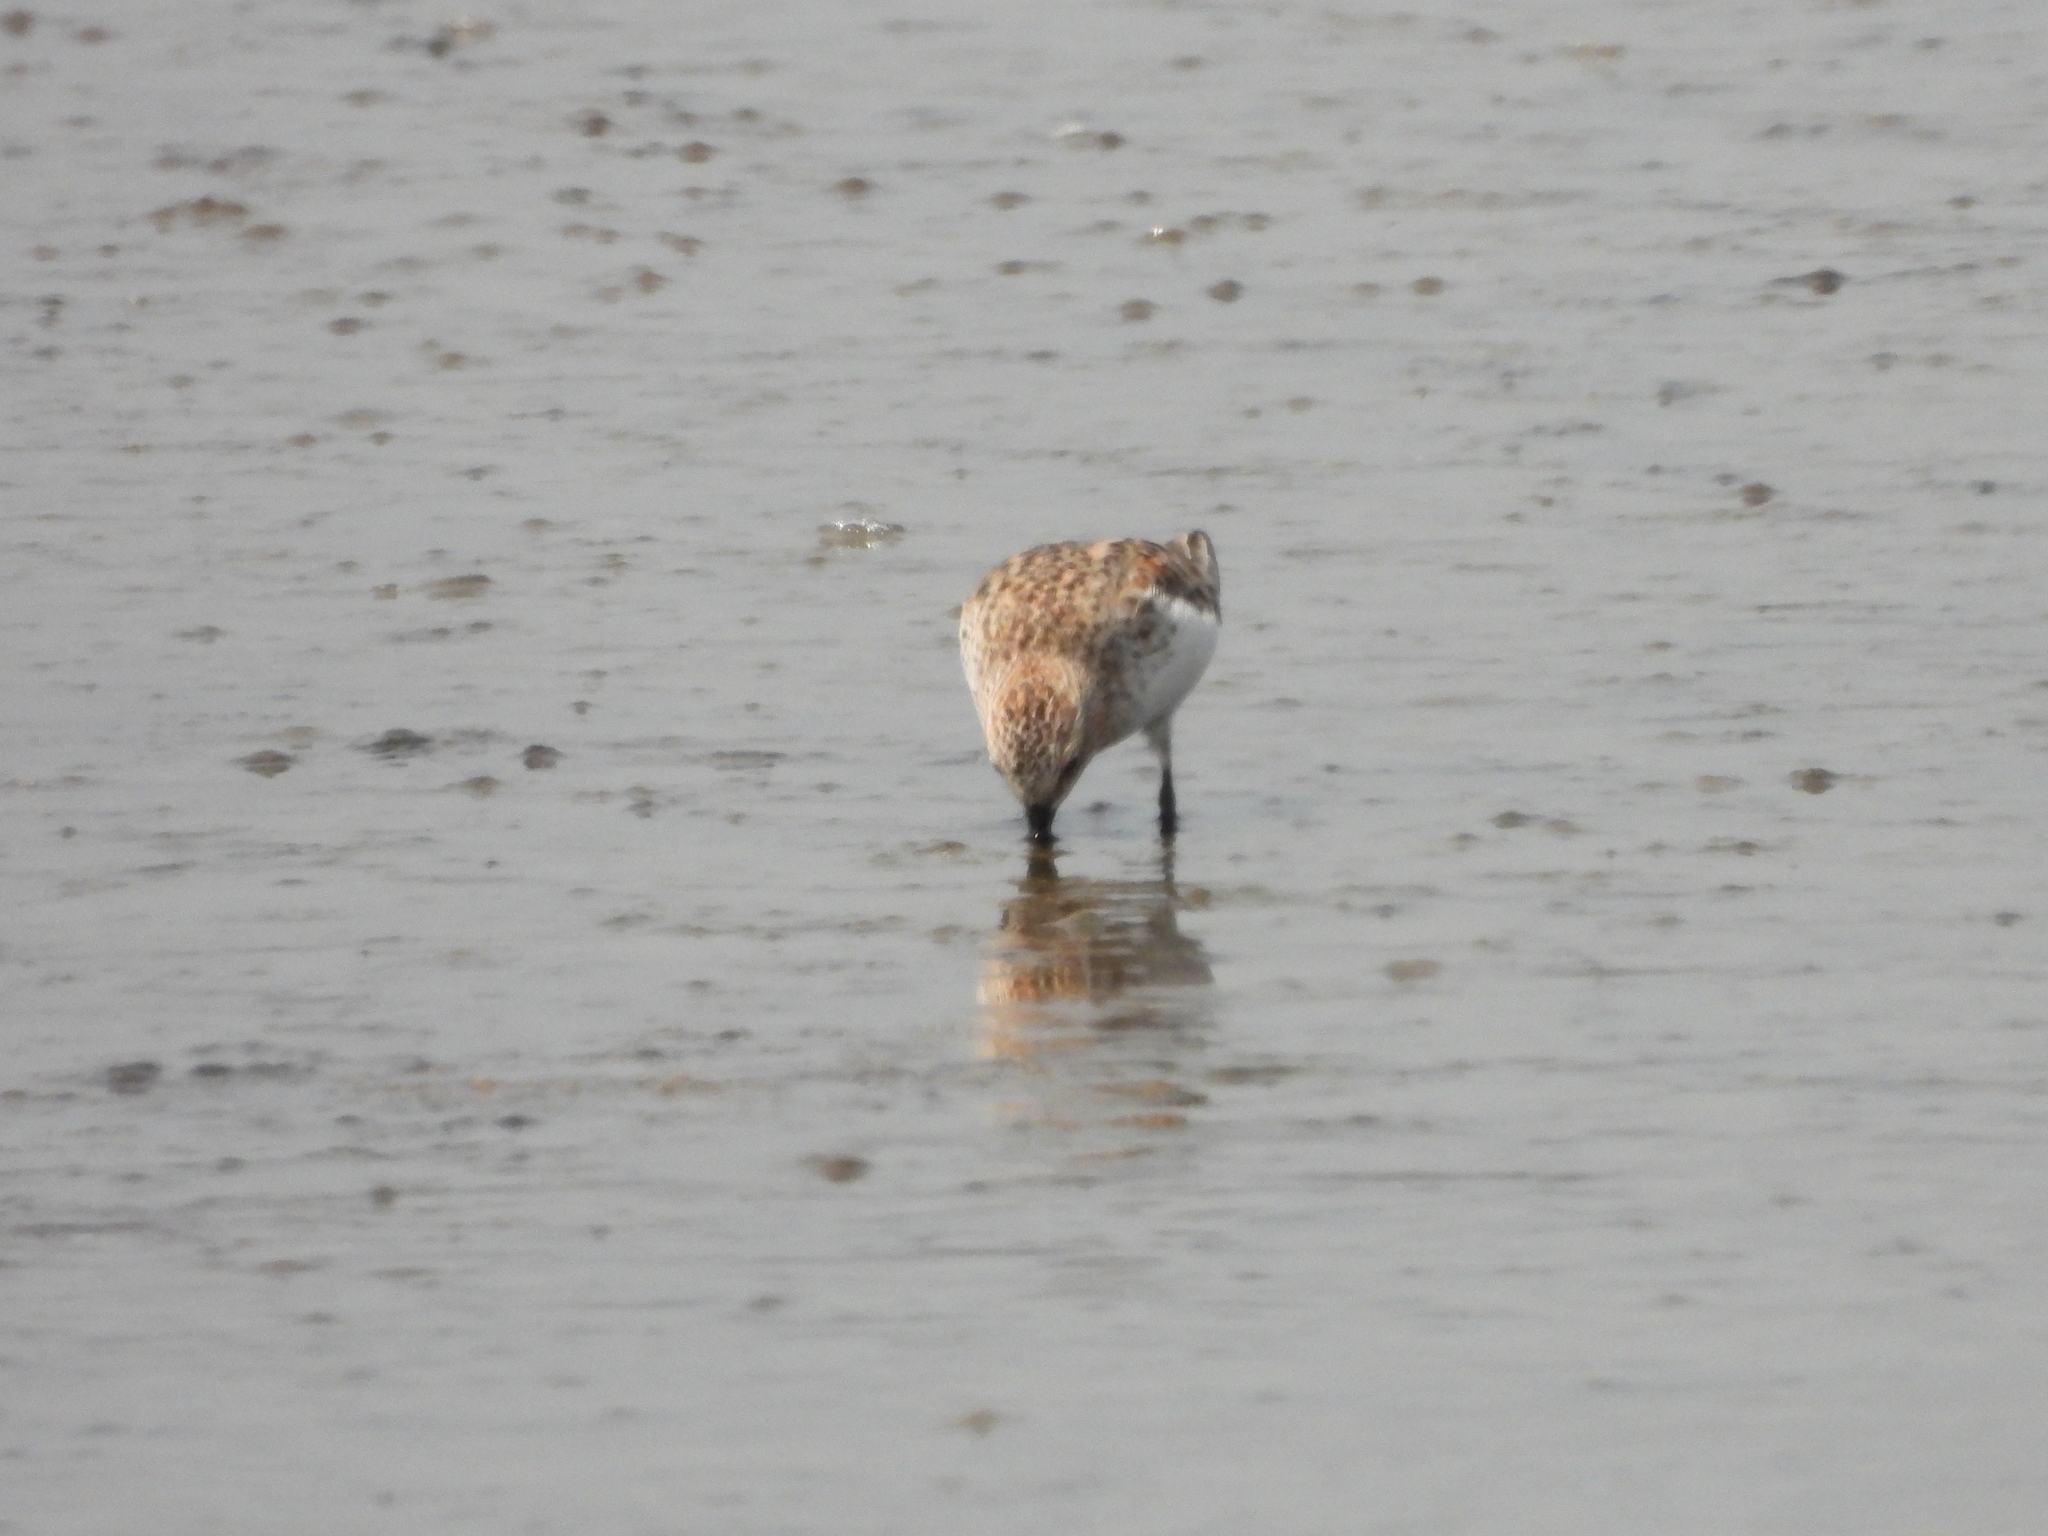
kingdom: Animalia
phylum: Chordata
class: Aves
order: Charadriiformes
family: Scolopacidae
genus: Calidris
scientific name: Calidris ruficollis
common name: Red-necked stint
